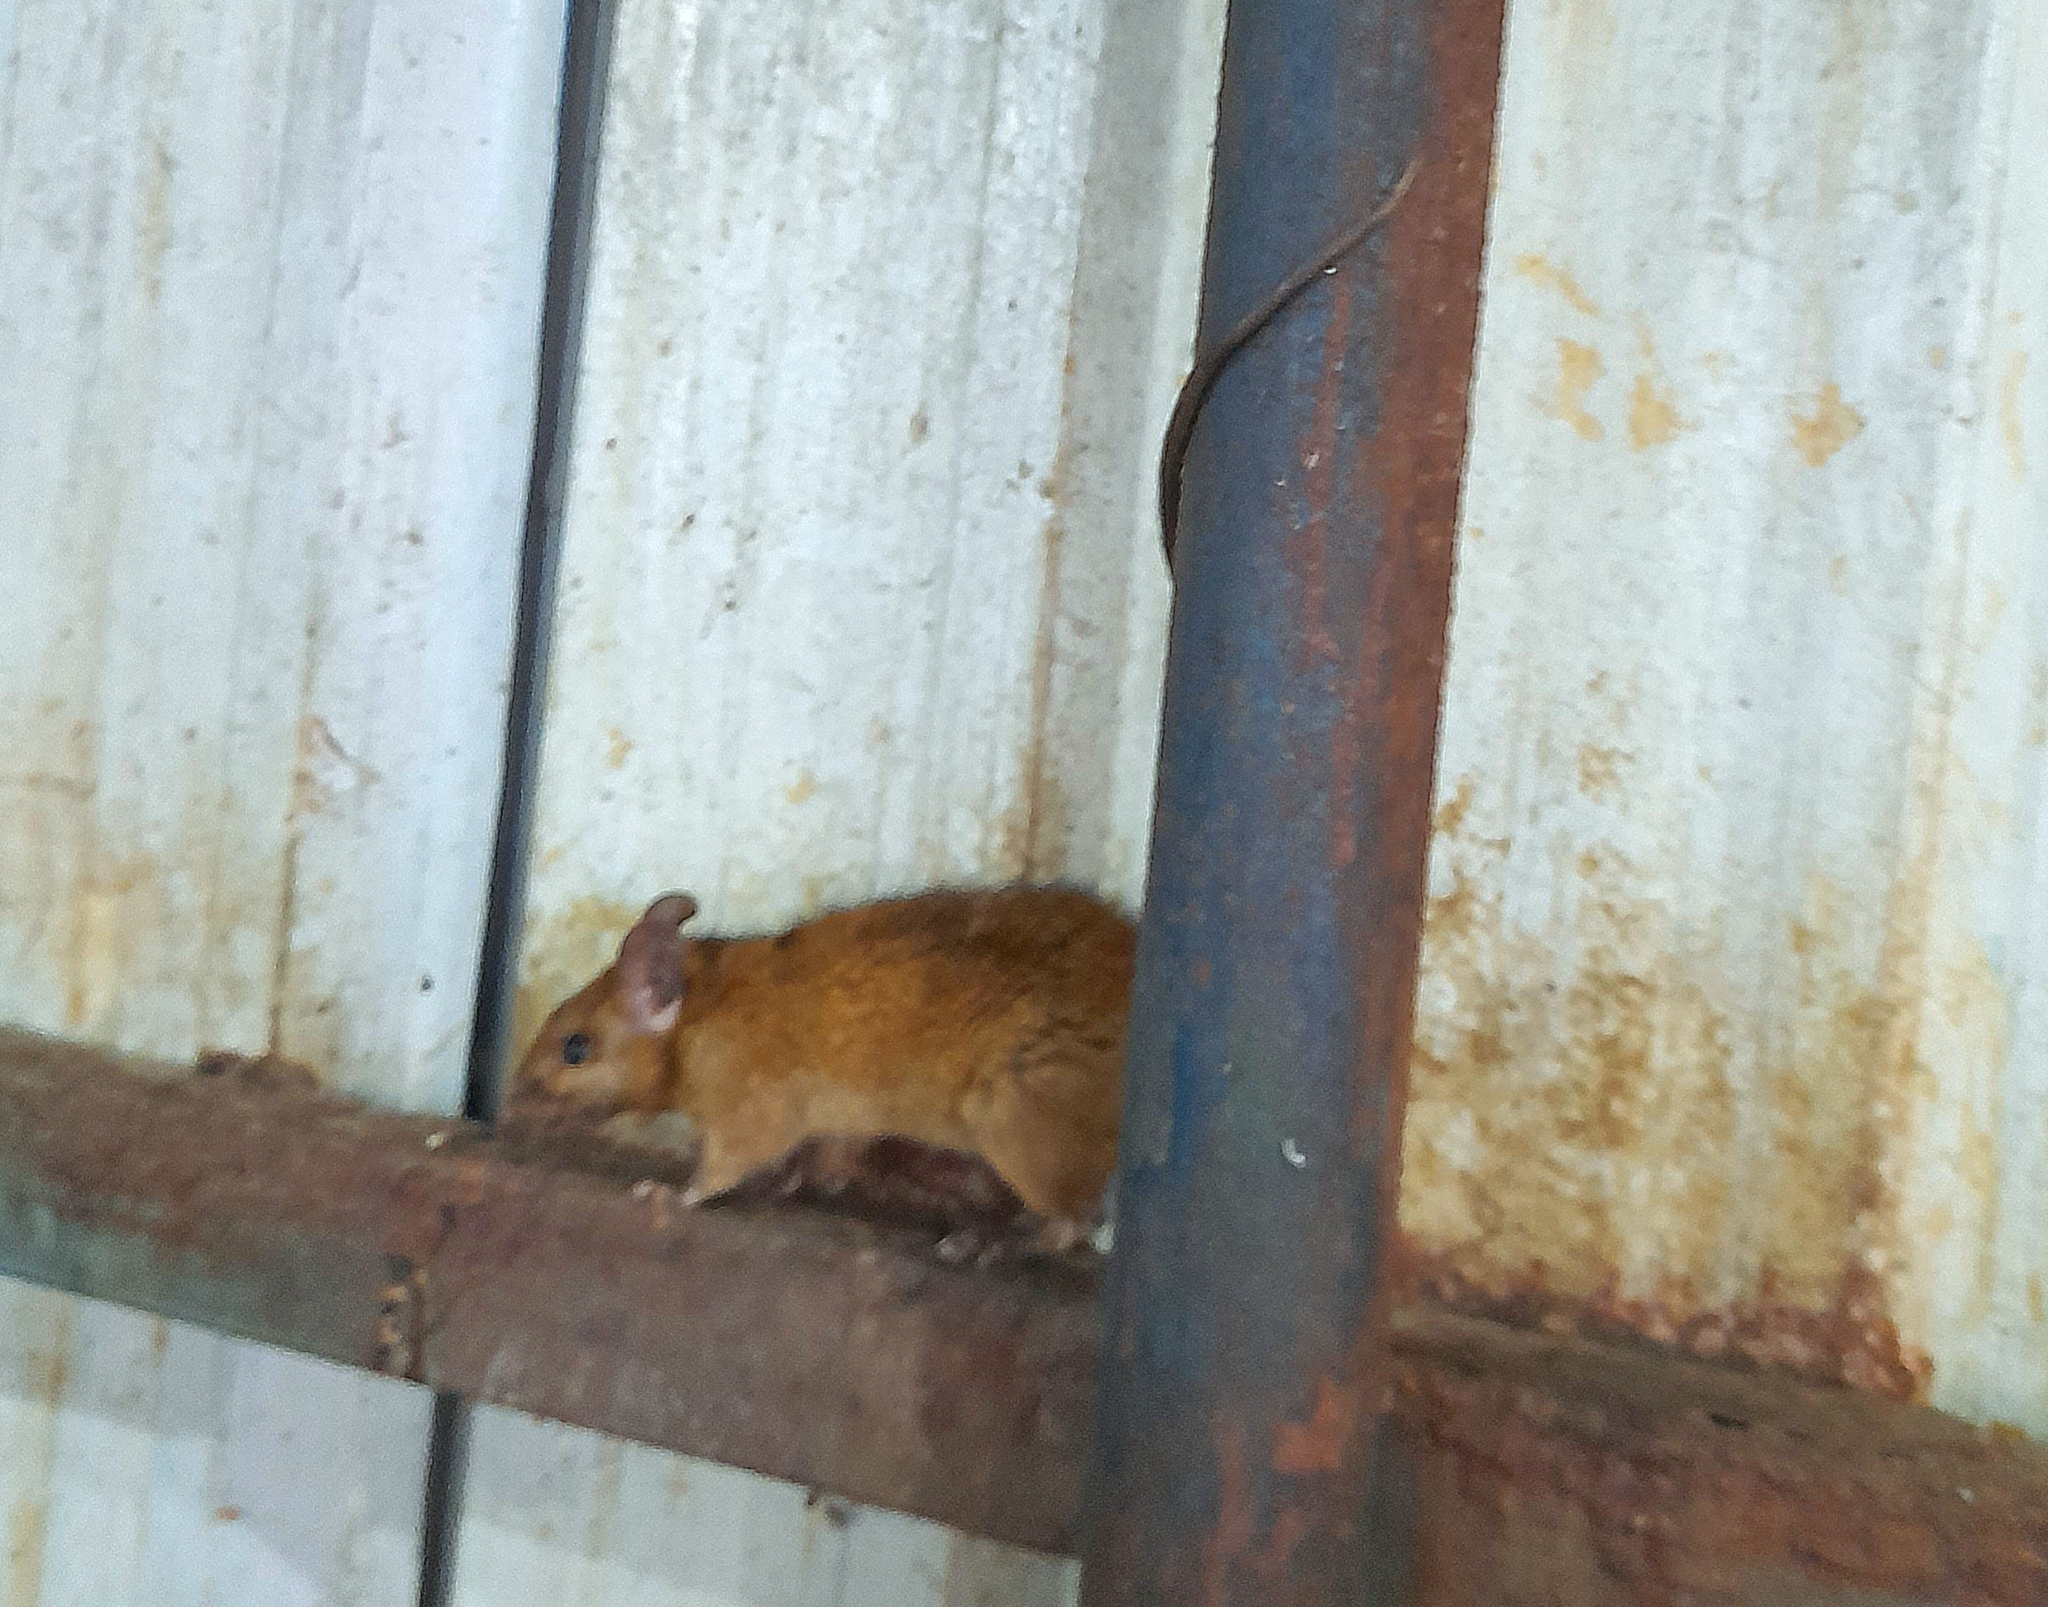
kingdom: Animalia
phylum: Chordata
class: Mammalia
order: Rodentia
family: Muridae
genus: Rattus
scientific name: Rattus rattus
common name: Black rat
